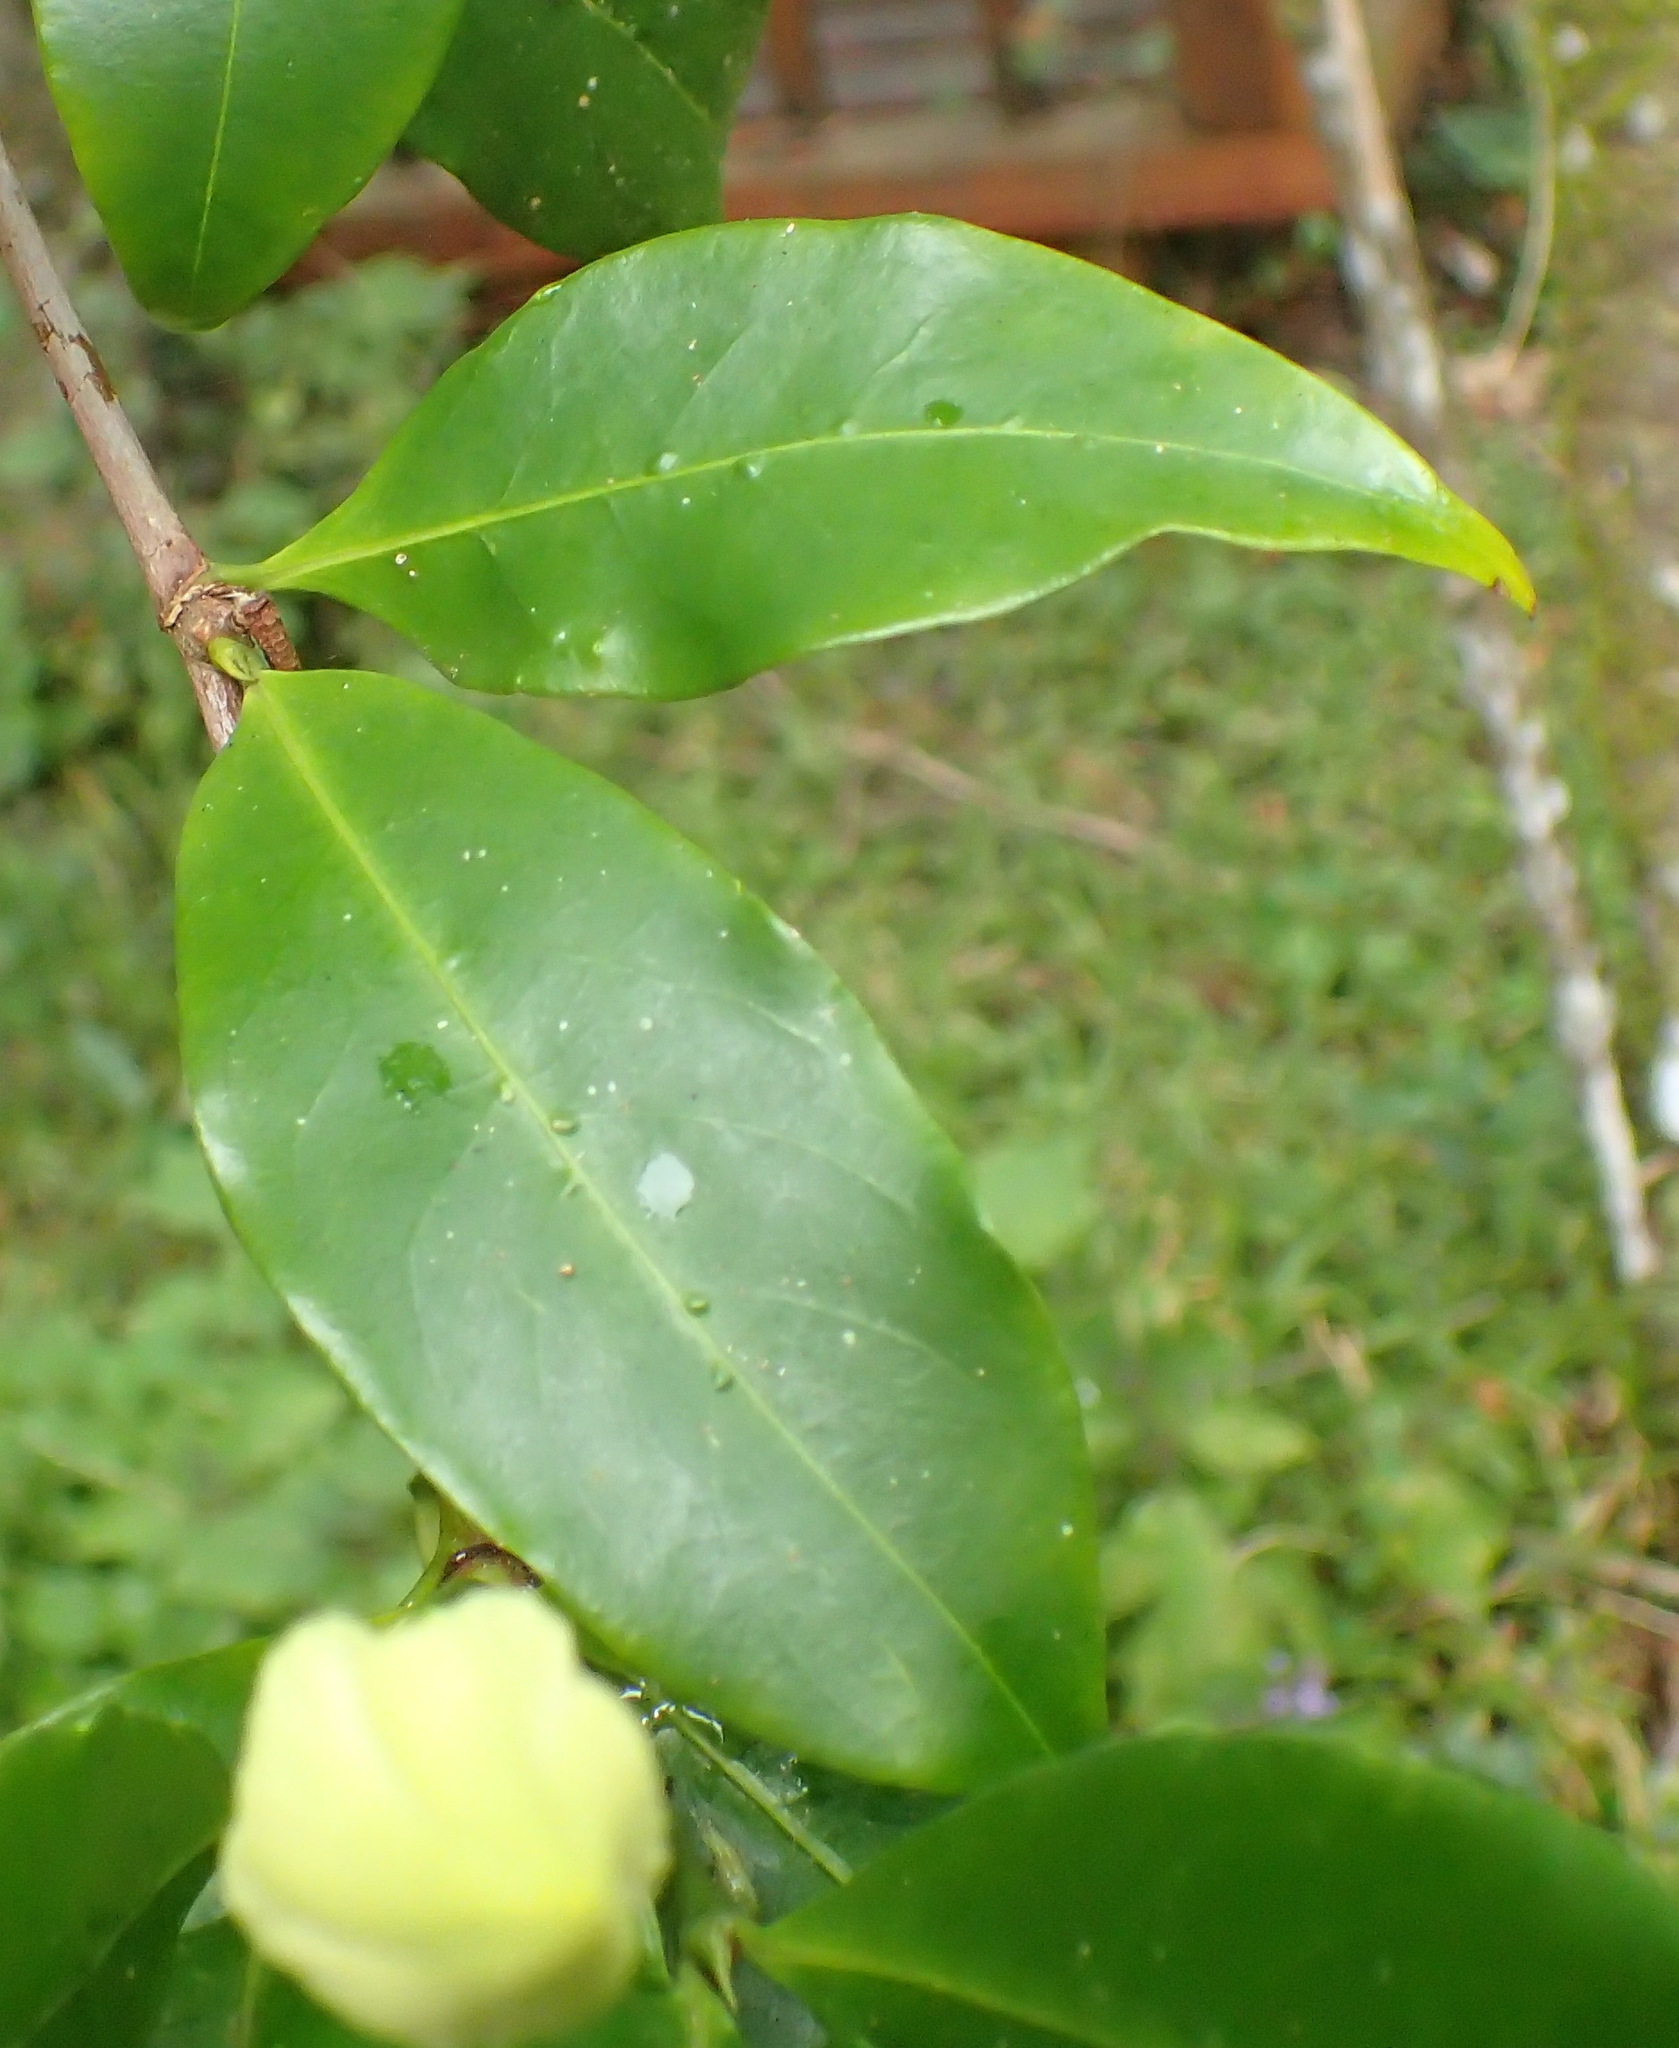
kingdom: Plantae
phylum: Tracheophyta
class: Magnoliopsida
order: Gentianales
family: Rubiaceae
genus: Rothmannia
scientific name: Rothmannia capensis
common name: Cape gardenia
